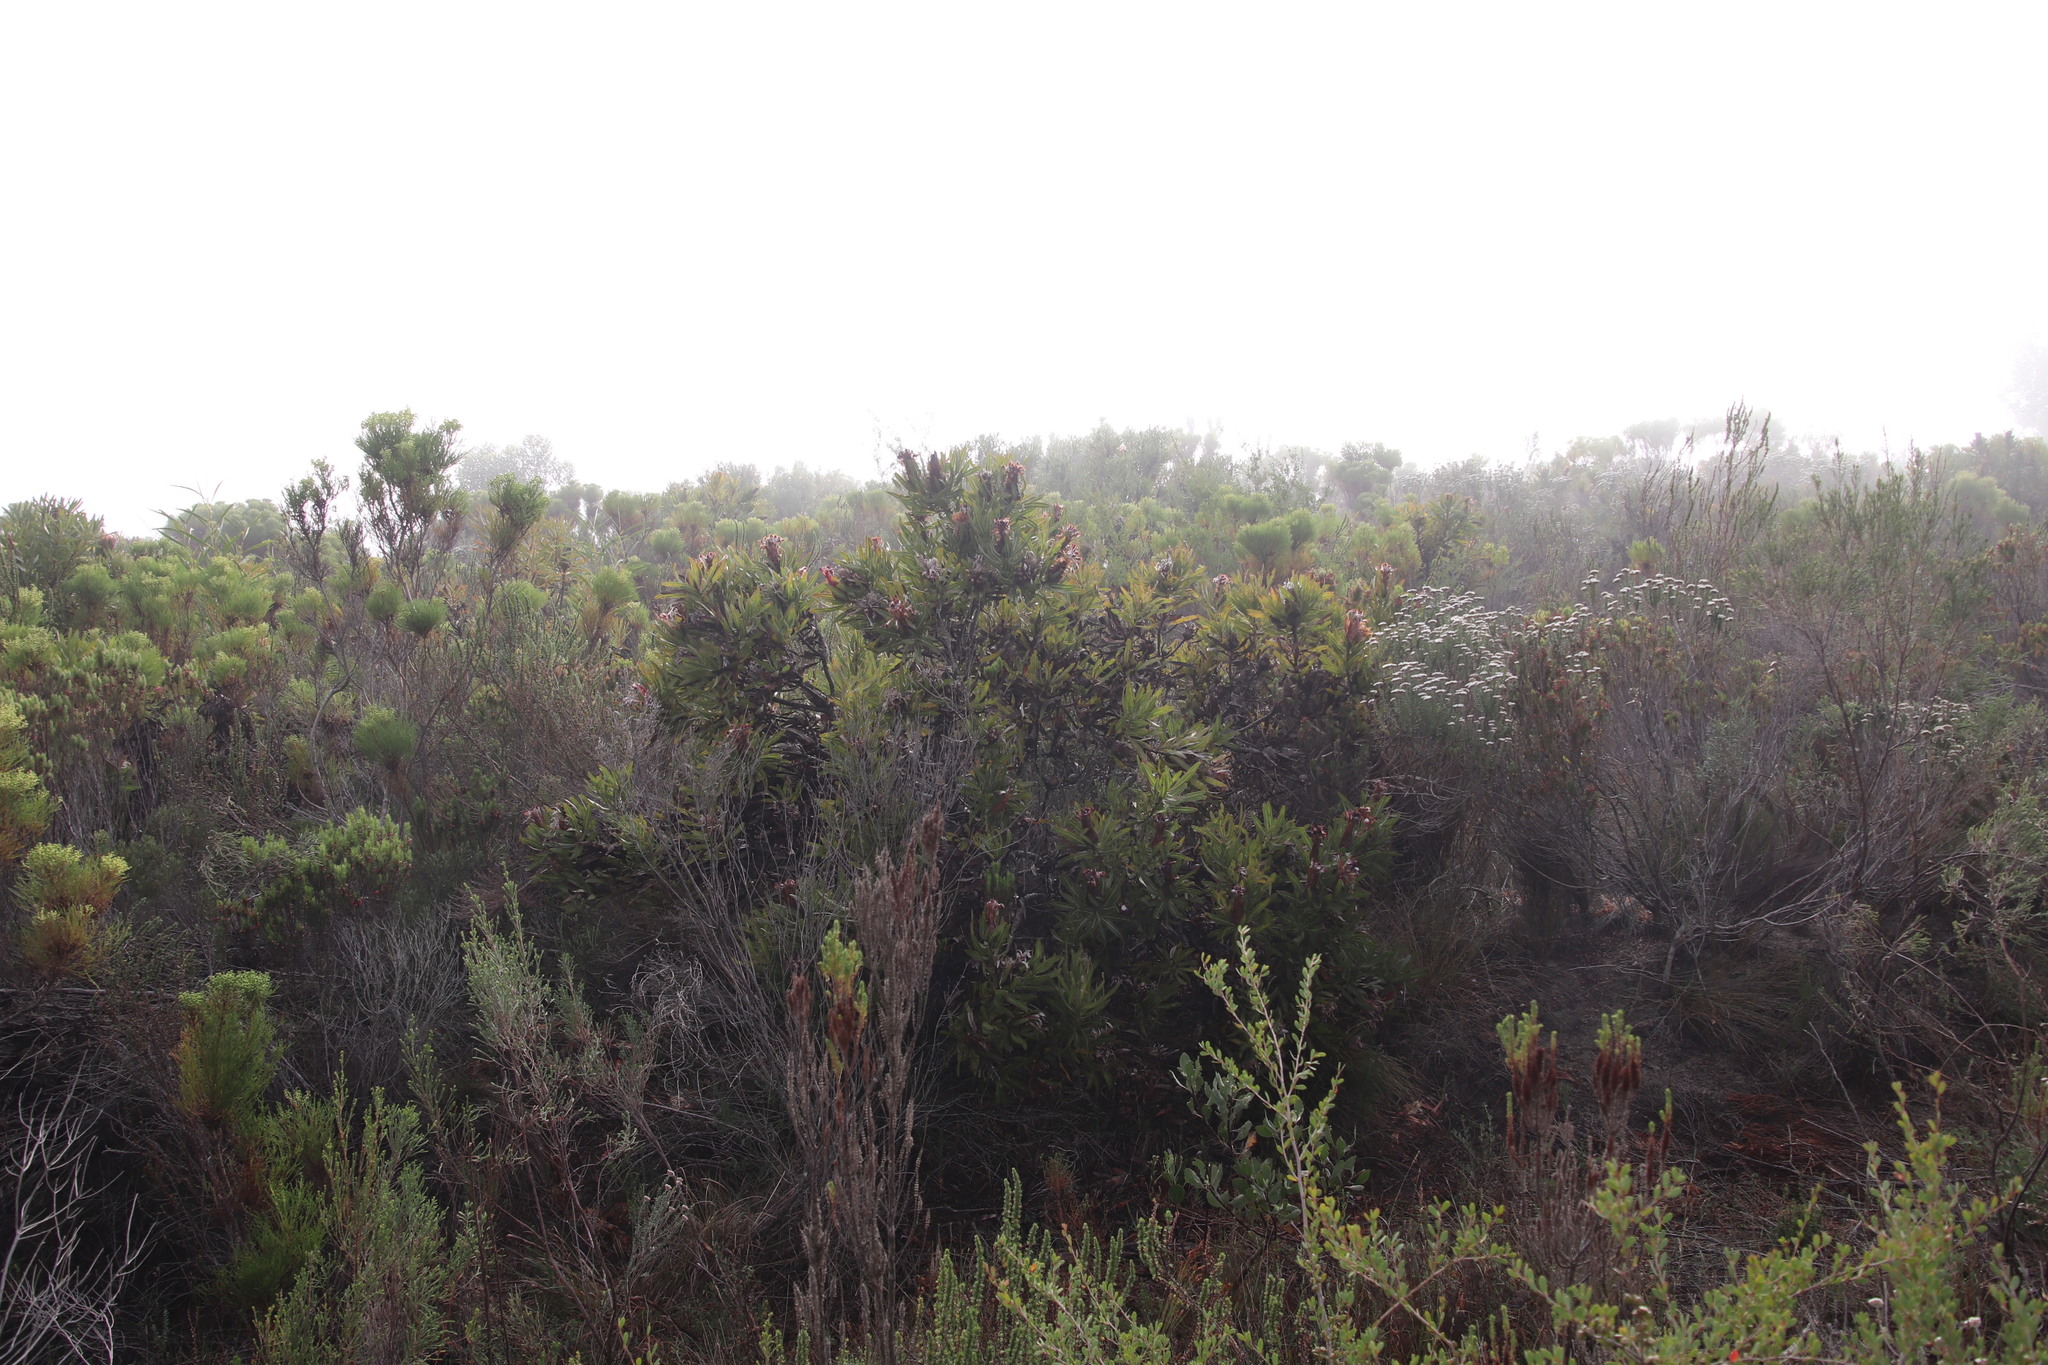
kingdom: Plantae
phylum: Tracheophyta
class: Magnoliopsida
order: Proteales
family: Proteaceae
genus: Protea
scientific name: Protea
